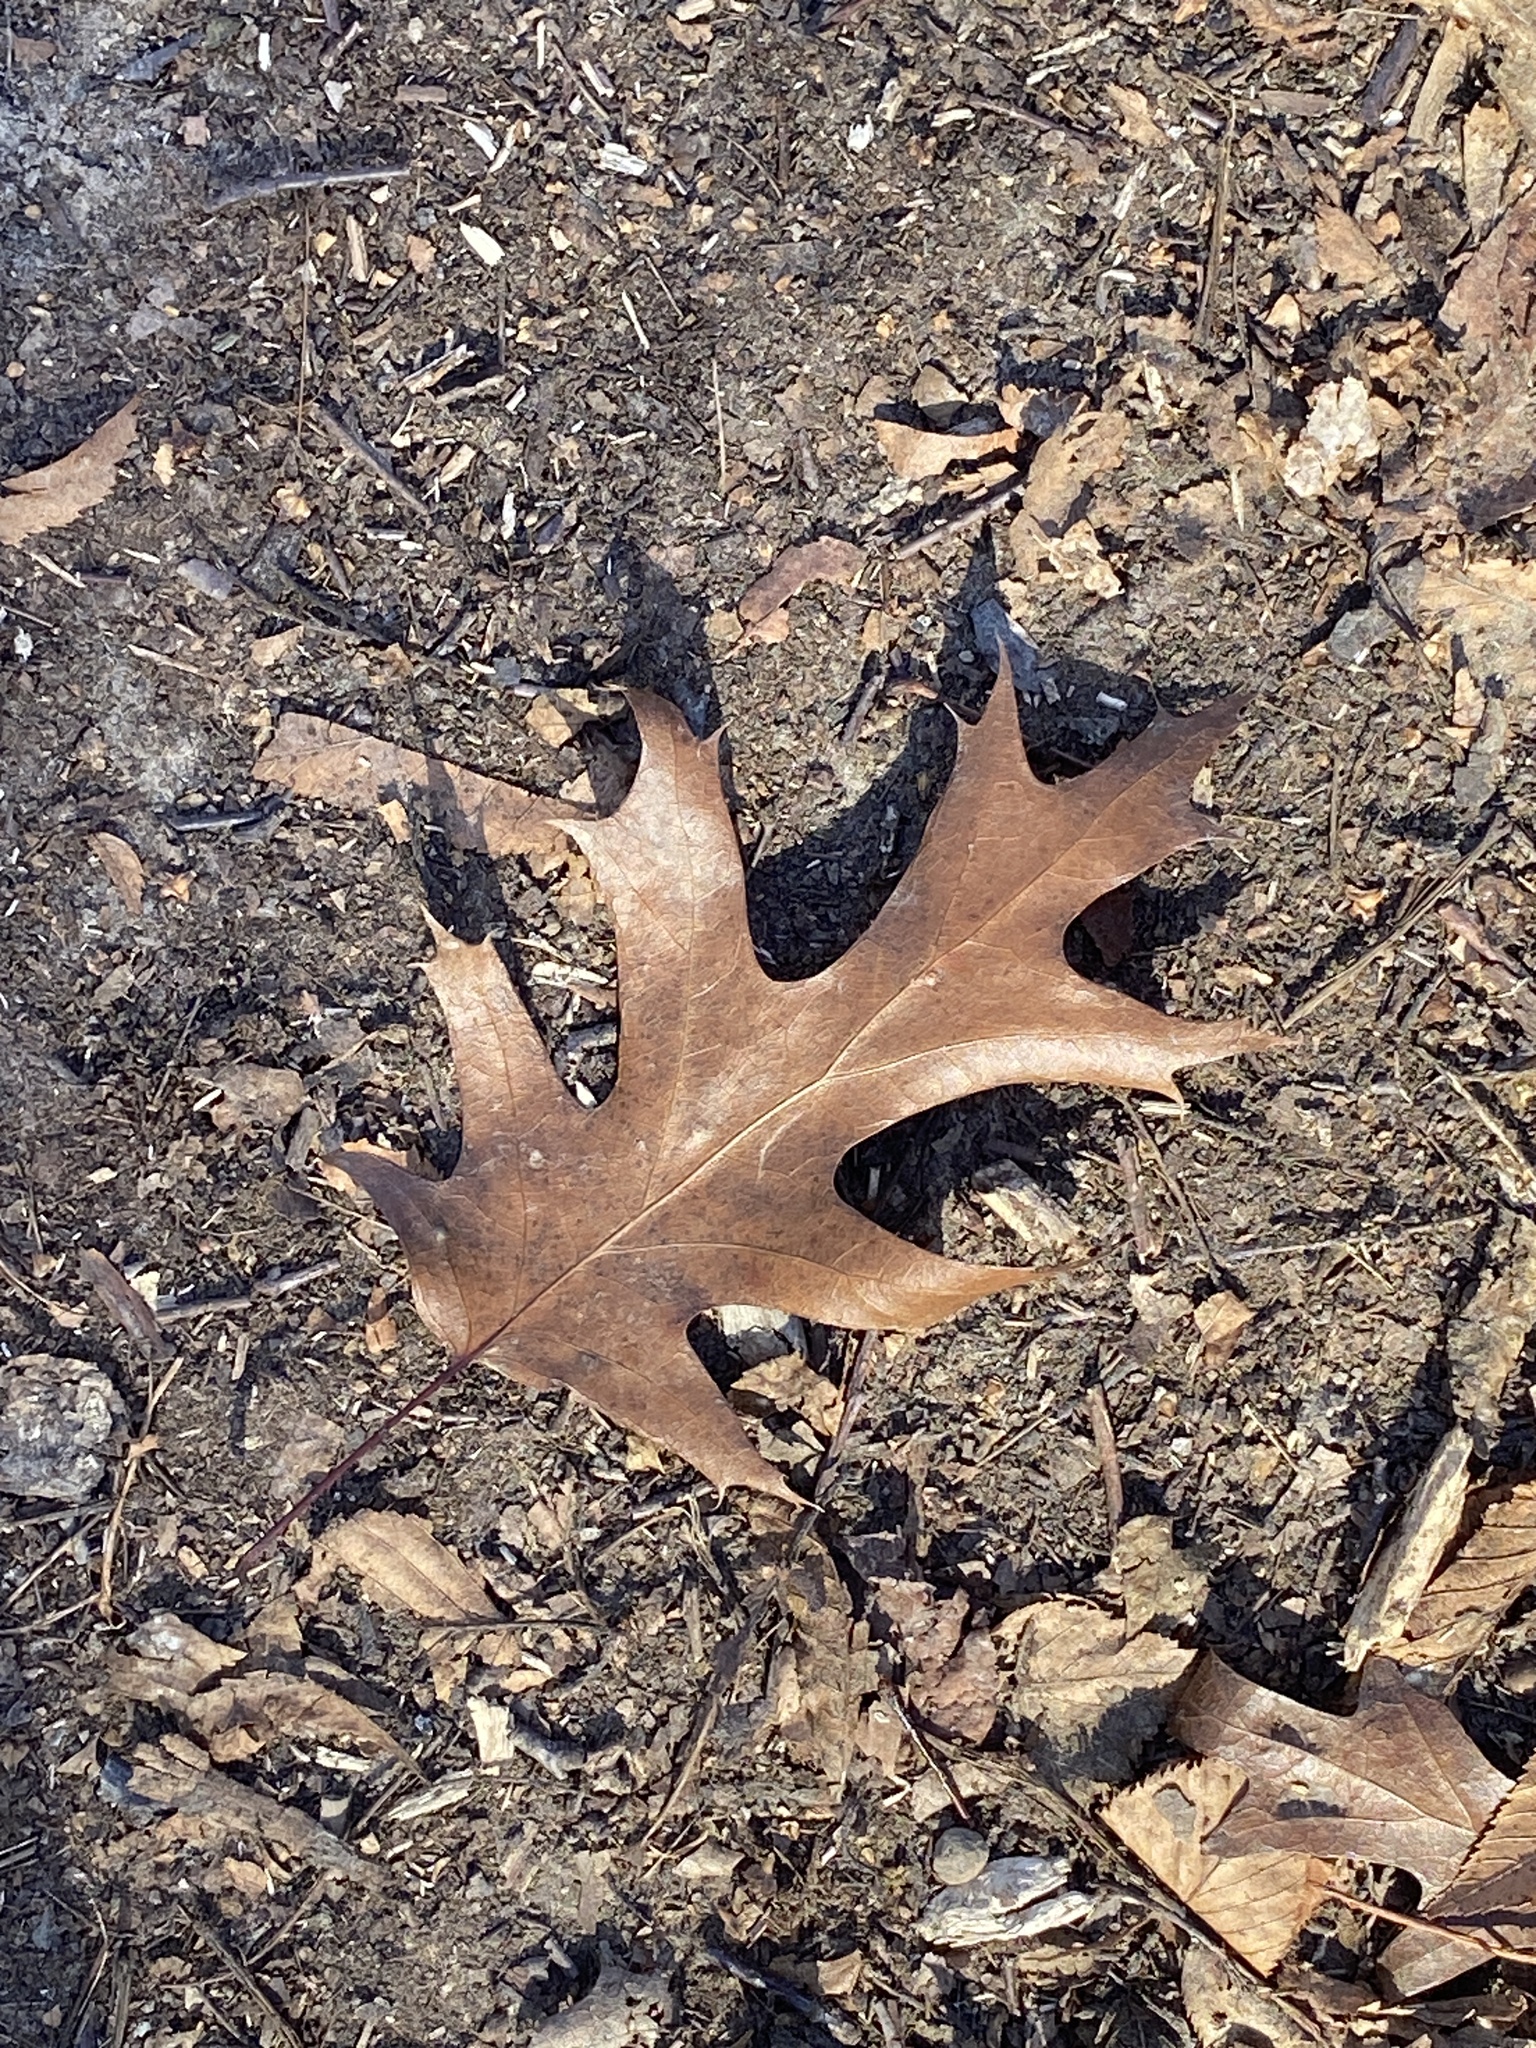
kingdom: Plantae
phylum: Tracheophyta
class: Magnoliopsida
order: Fagales
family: Fagaceae
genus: Quercus
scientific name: Quercus rubra
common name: Red oak
